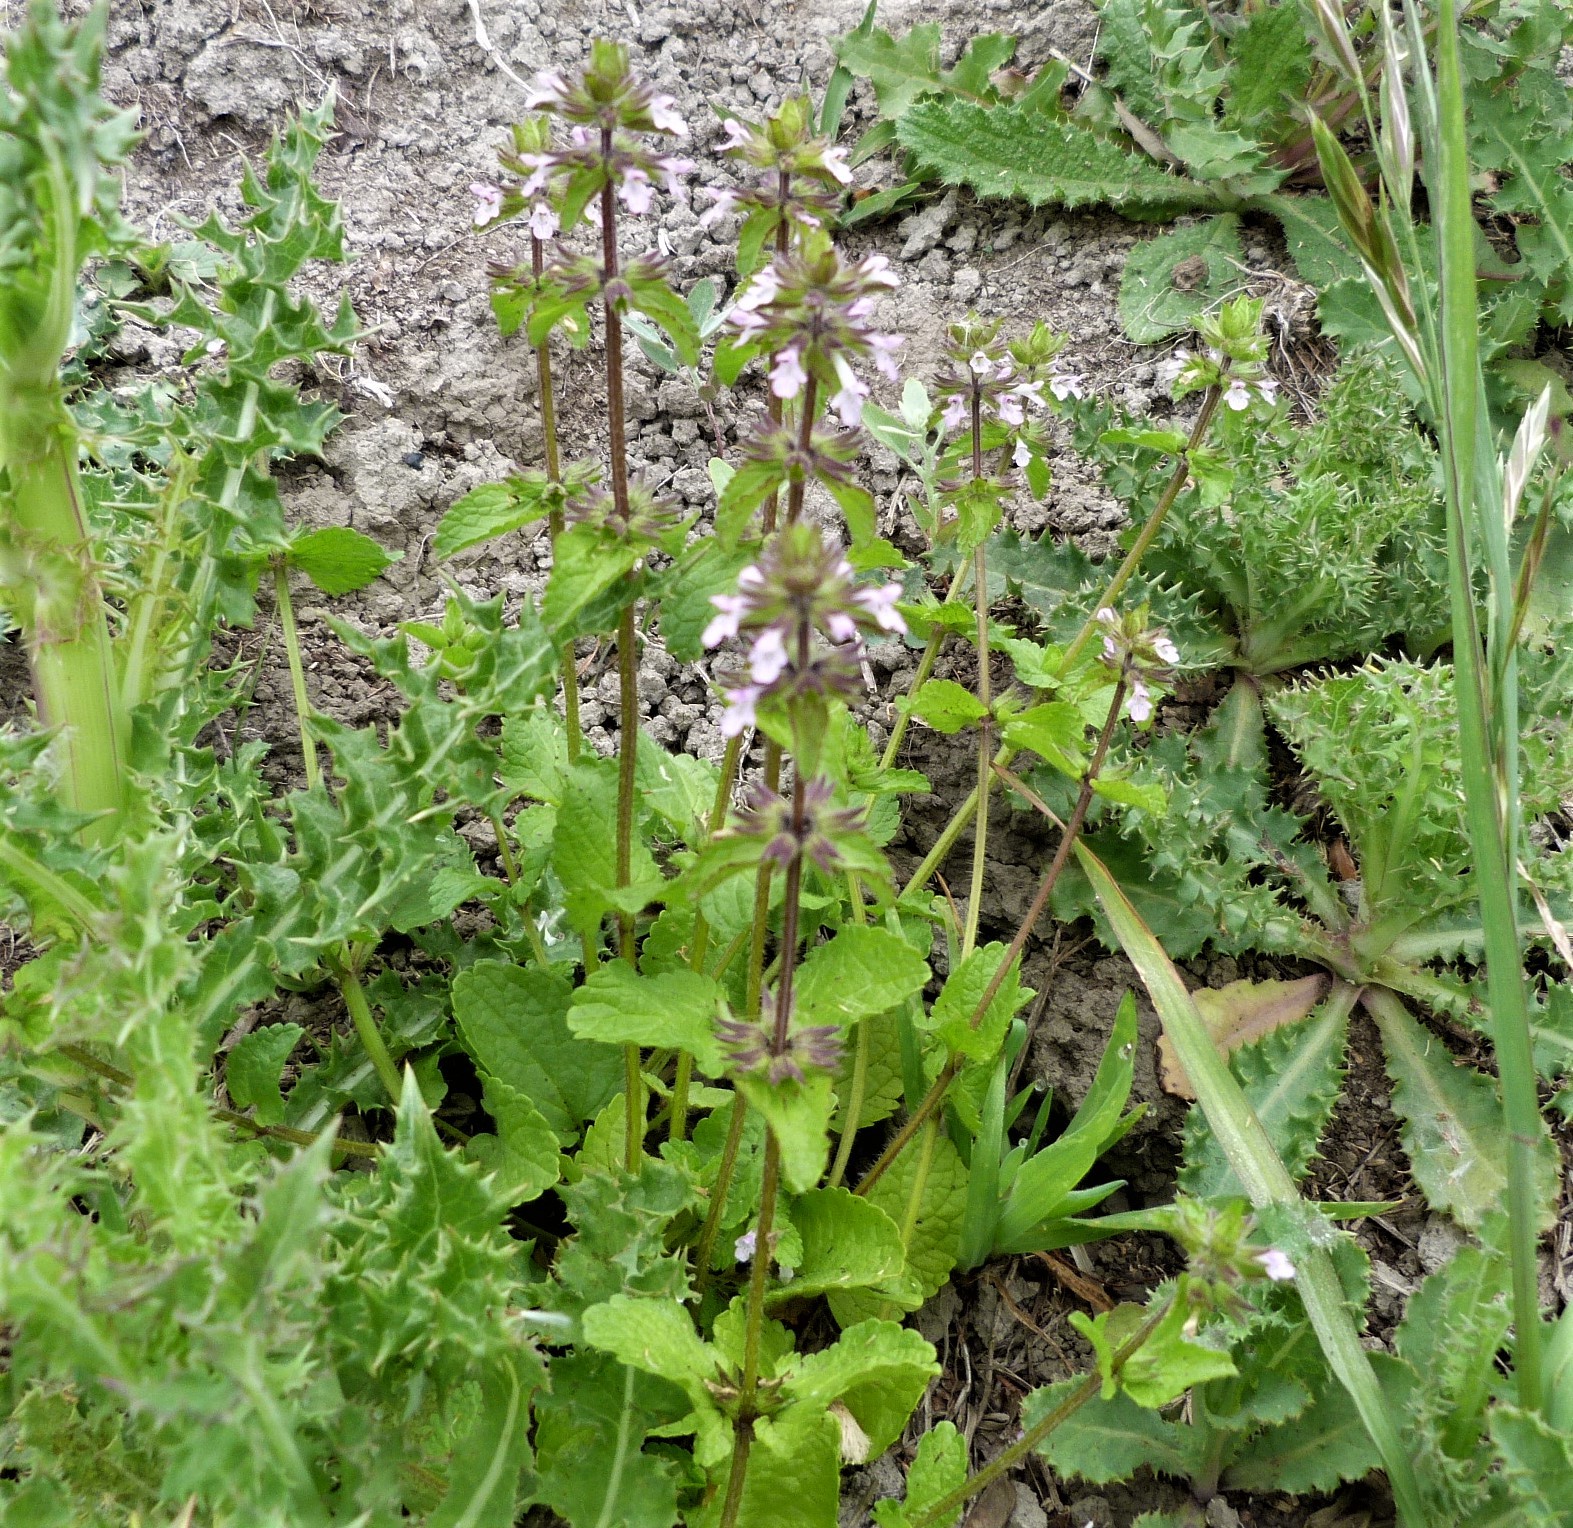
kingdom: Plantae
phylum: Tracheophyta
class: Magnoliopsida
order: Lamiales
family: Lamiaceae
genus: Stachys
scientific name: Stachys arvensis
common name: Field woundwort
